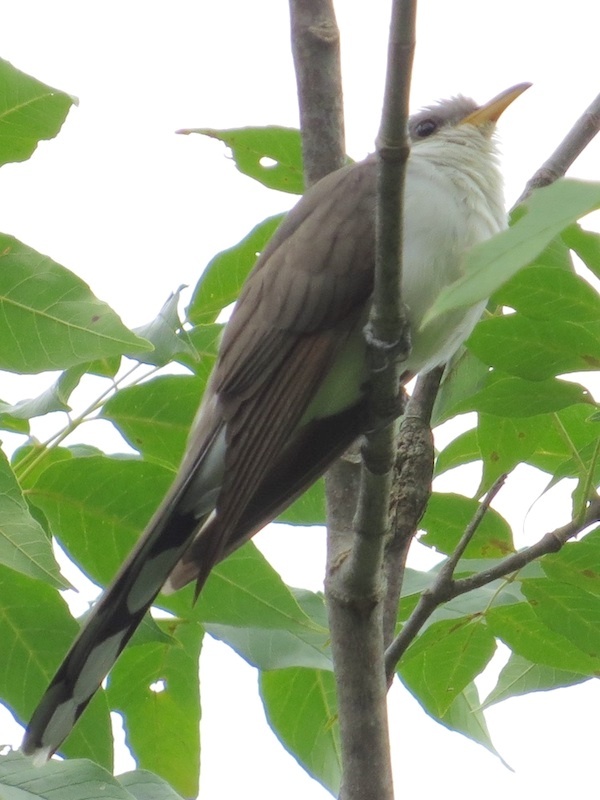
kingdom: Animalia
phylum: Chordata
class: Aves
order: Cuculiformes
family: Cuculidae
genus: Coccyzus
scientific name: Coccyzus americanus
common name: Yellow-billed cuckoo
